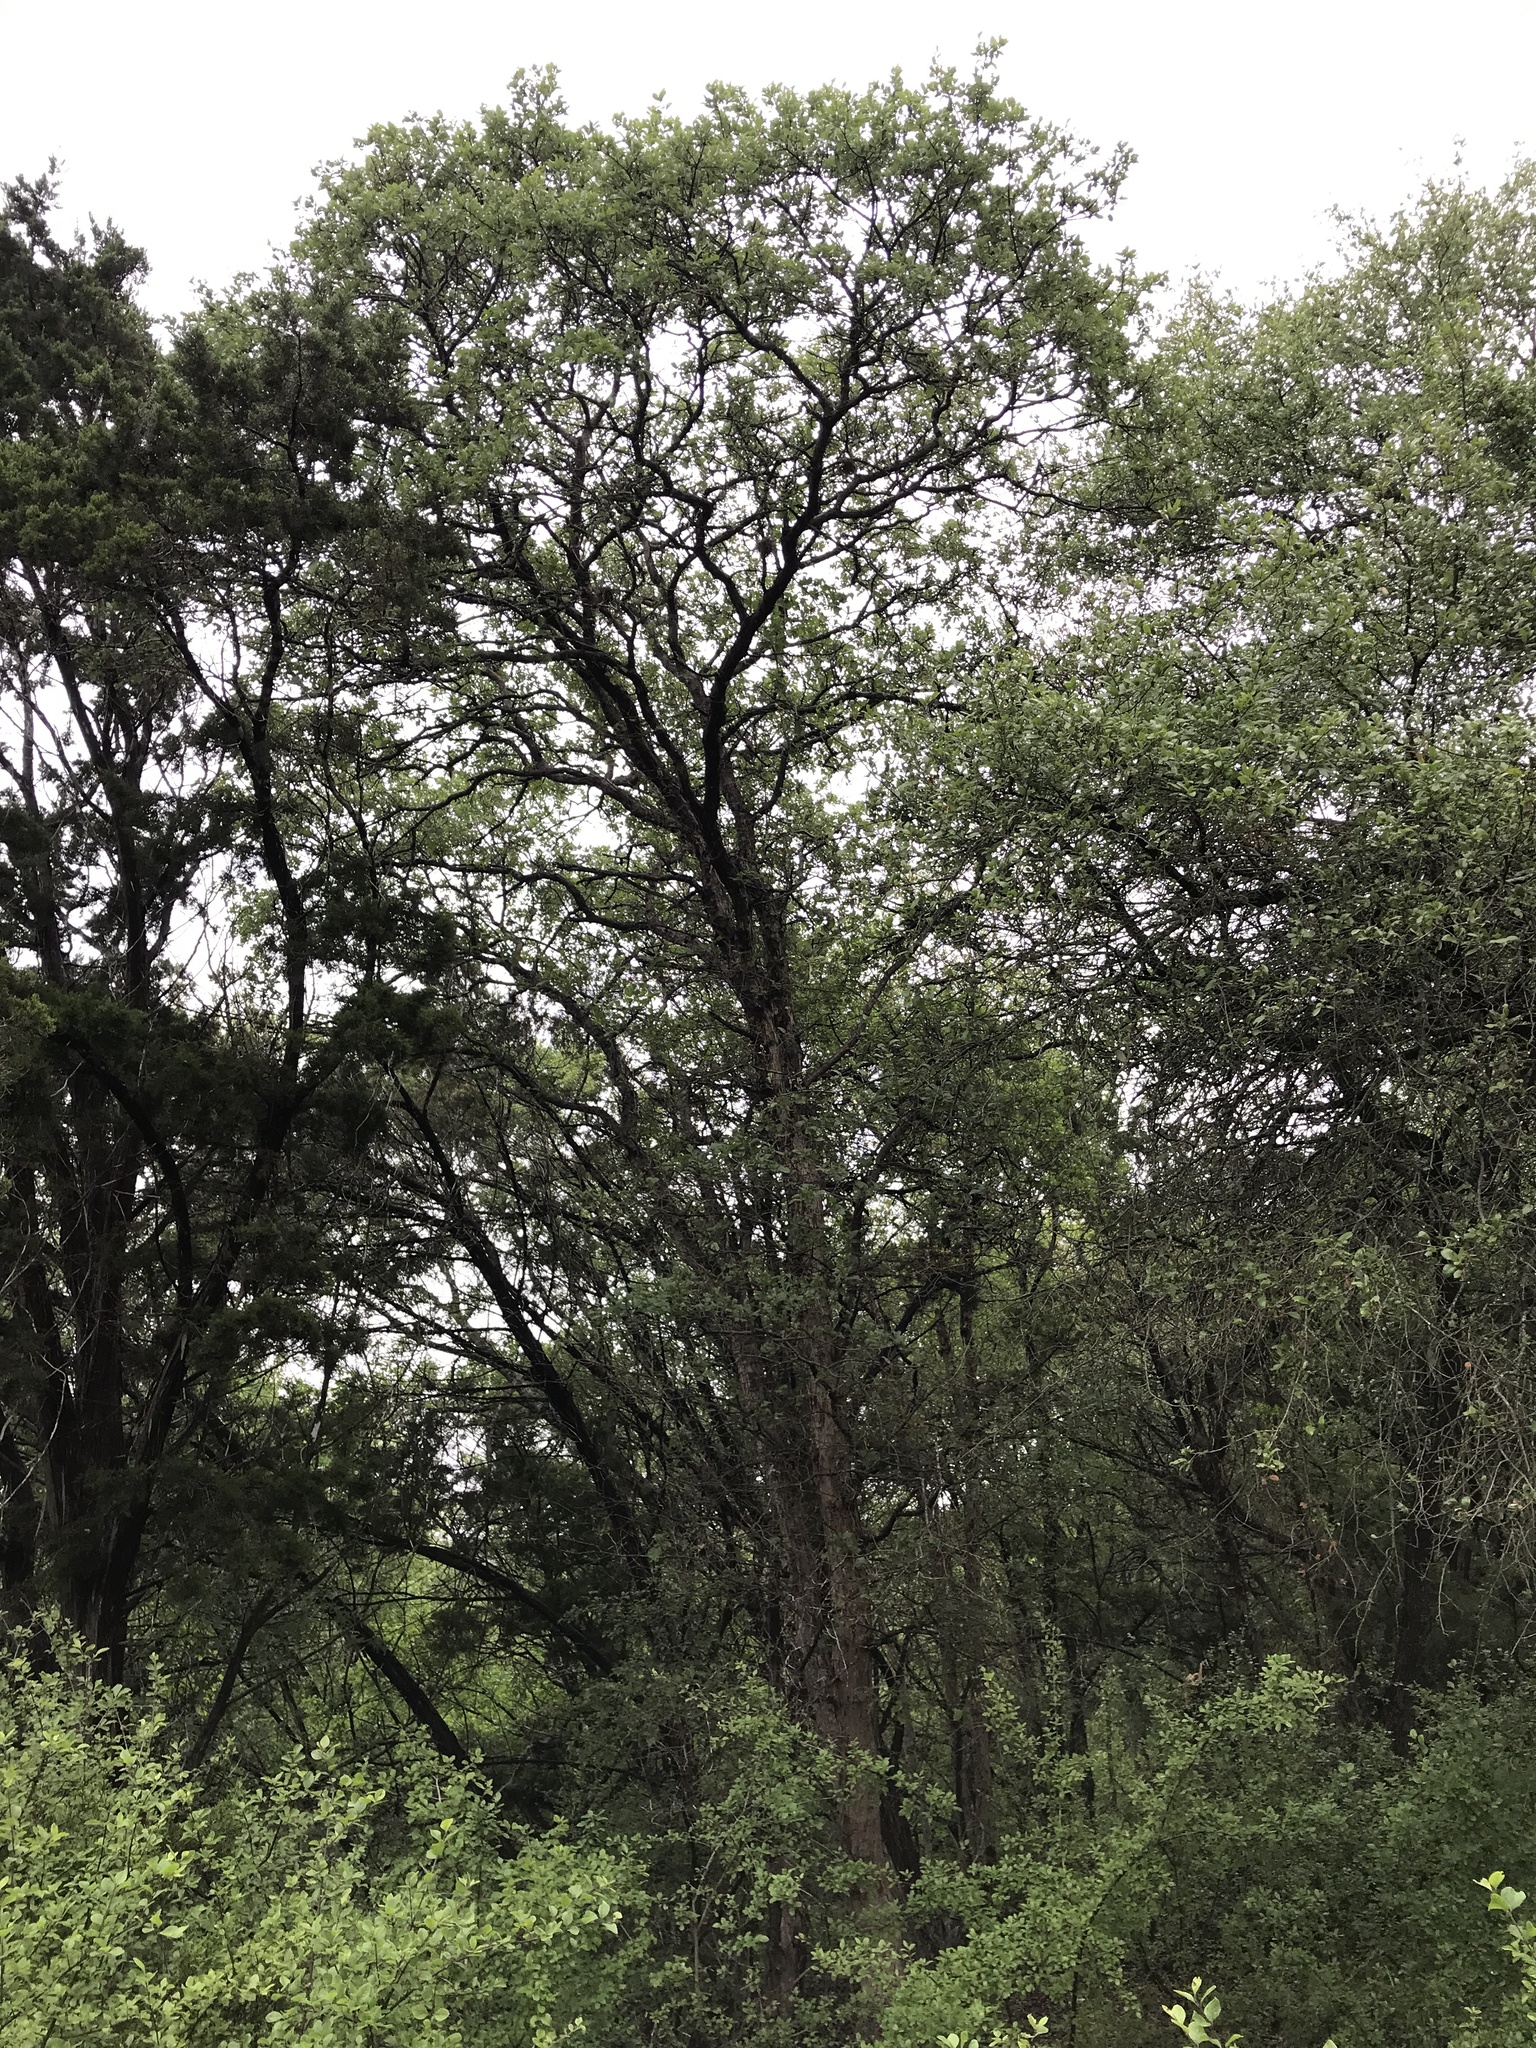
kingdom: Plantae
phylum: Tracheophyta
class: Magnoliopsida
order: Fagales
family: Fagaceae
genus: Quercus
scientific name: Quercus sinuata
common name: Durand oak
